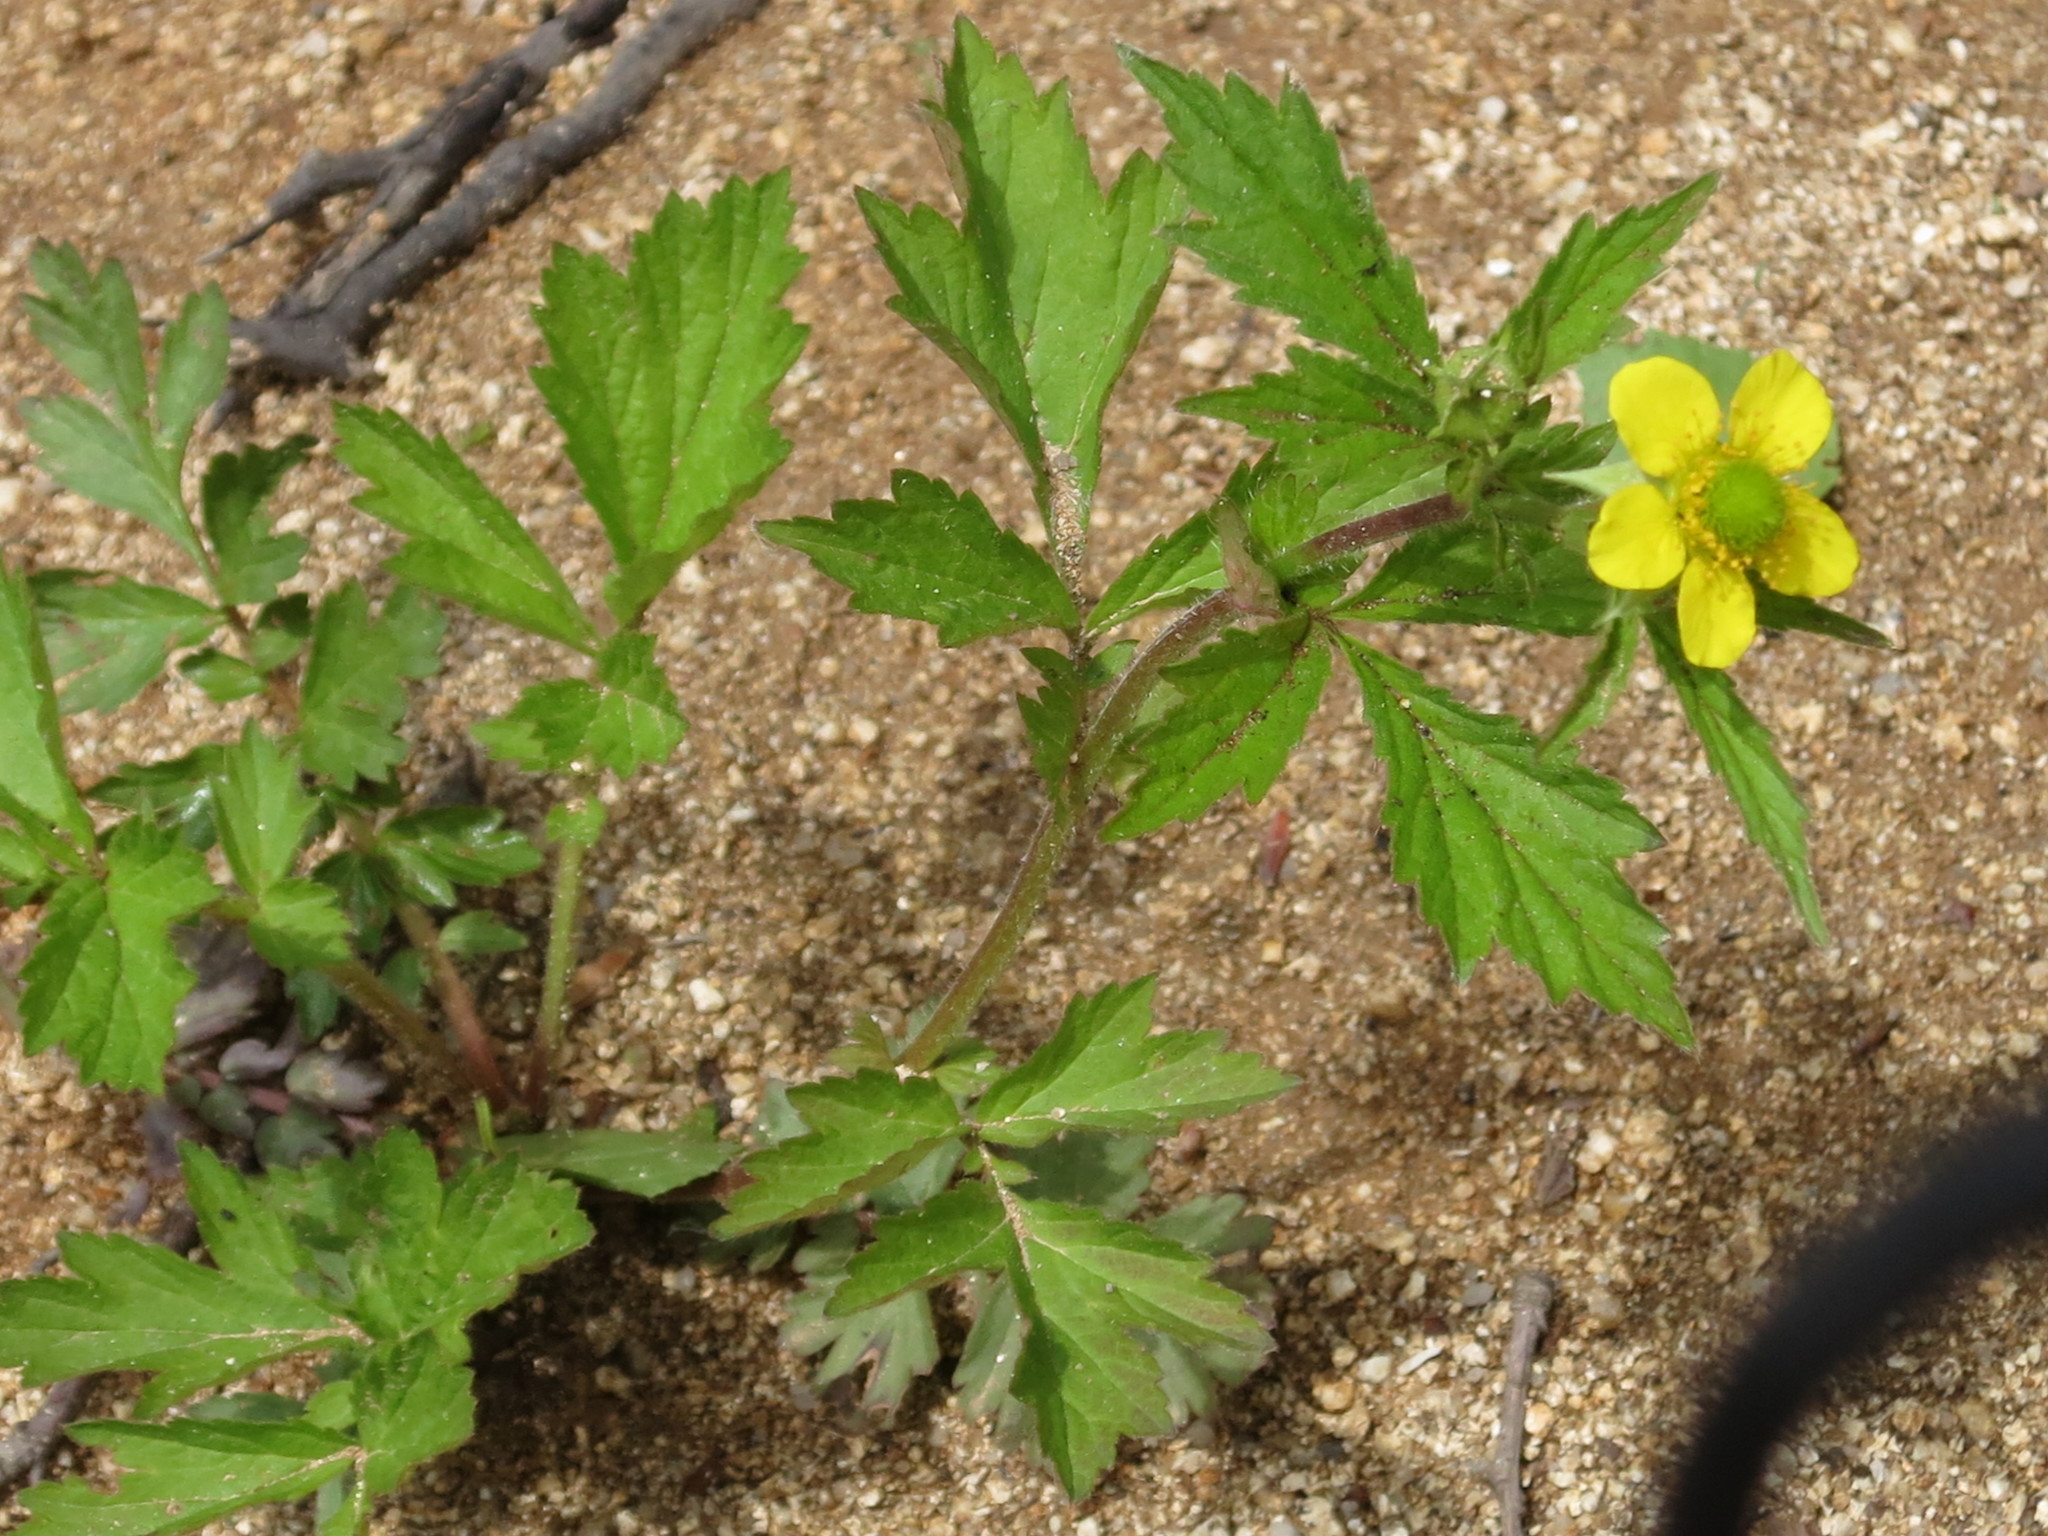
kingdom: Plantae
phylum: Tracheophyta
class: Magnoliopsida
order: Rosales
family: Rosaceae
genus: Geum
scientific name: Geum aleppicum
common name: Yellow avens
